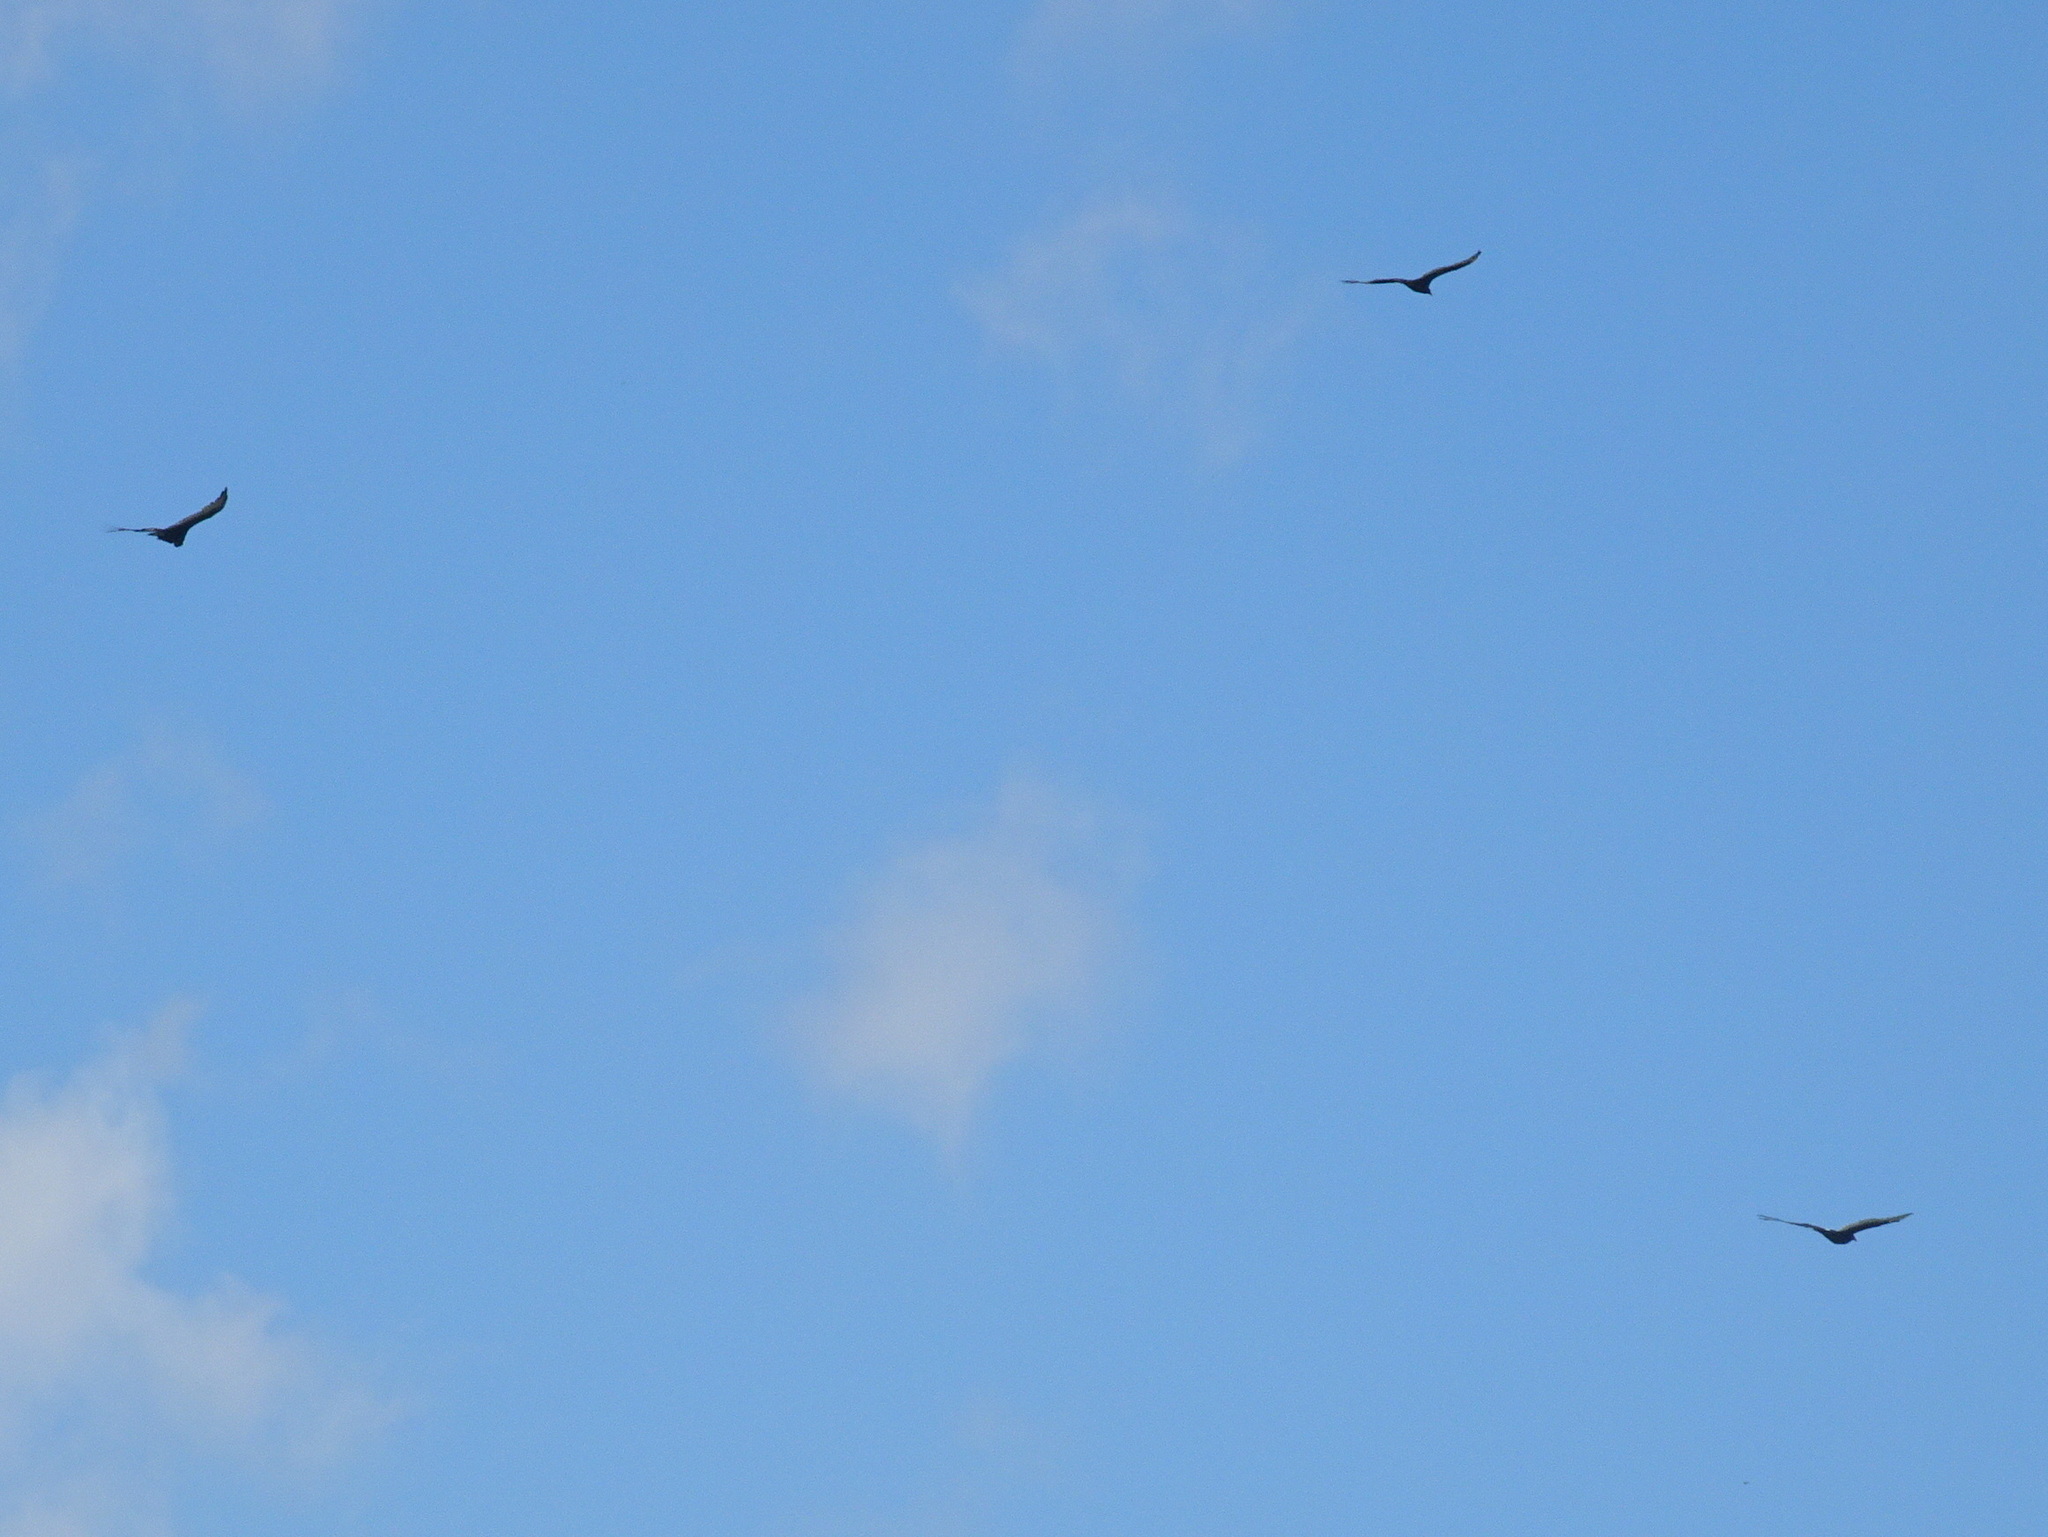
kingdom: Animalia
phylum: Chordata
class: Aves
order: Accipitriformes
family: Cathartidae
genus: Cathartes
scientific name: Cathartes aura
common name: Turkey vulture
